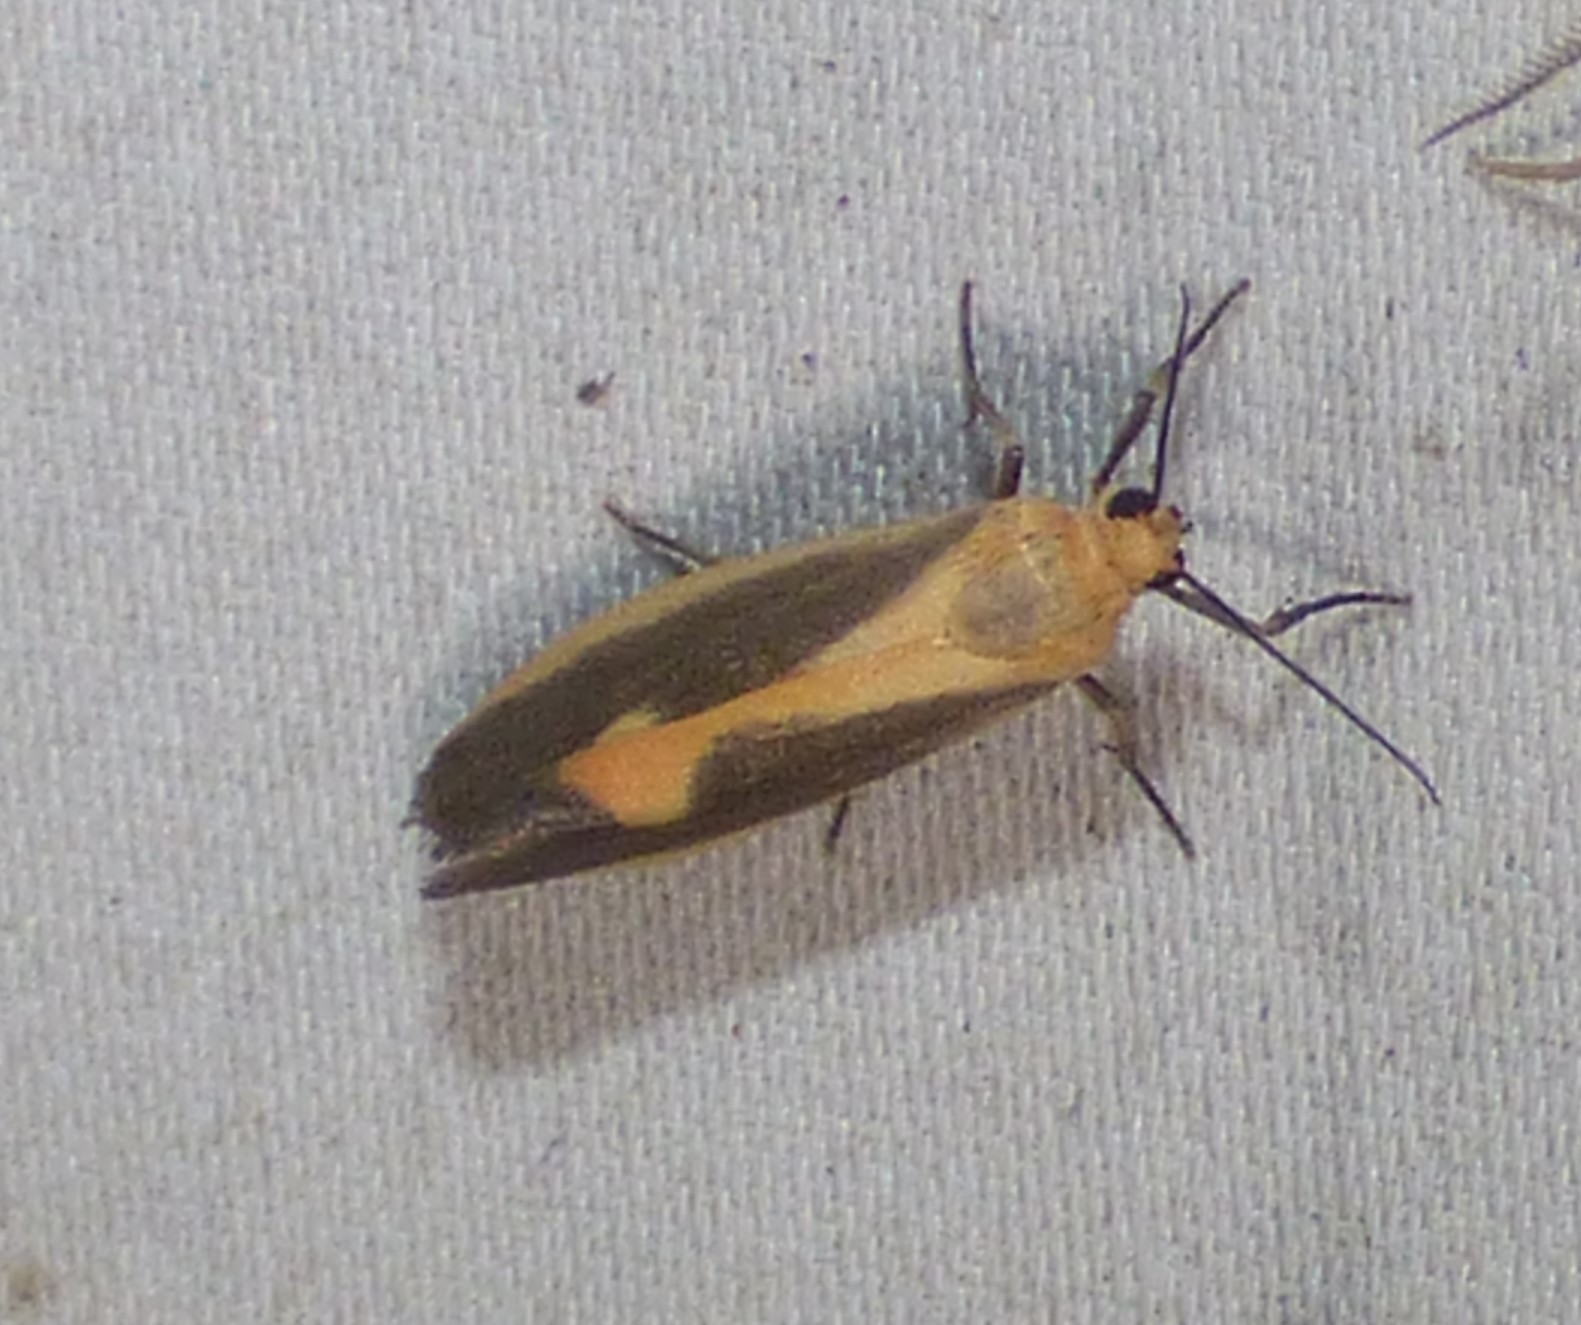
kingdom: Animalia
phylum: Arthropoda
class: Insecta
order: Lepidoptera
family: Erebidae
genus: Cisthene
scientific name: Cisthene plumbea
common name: Lead colored lichen moth
